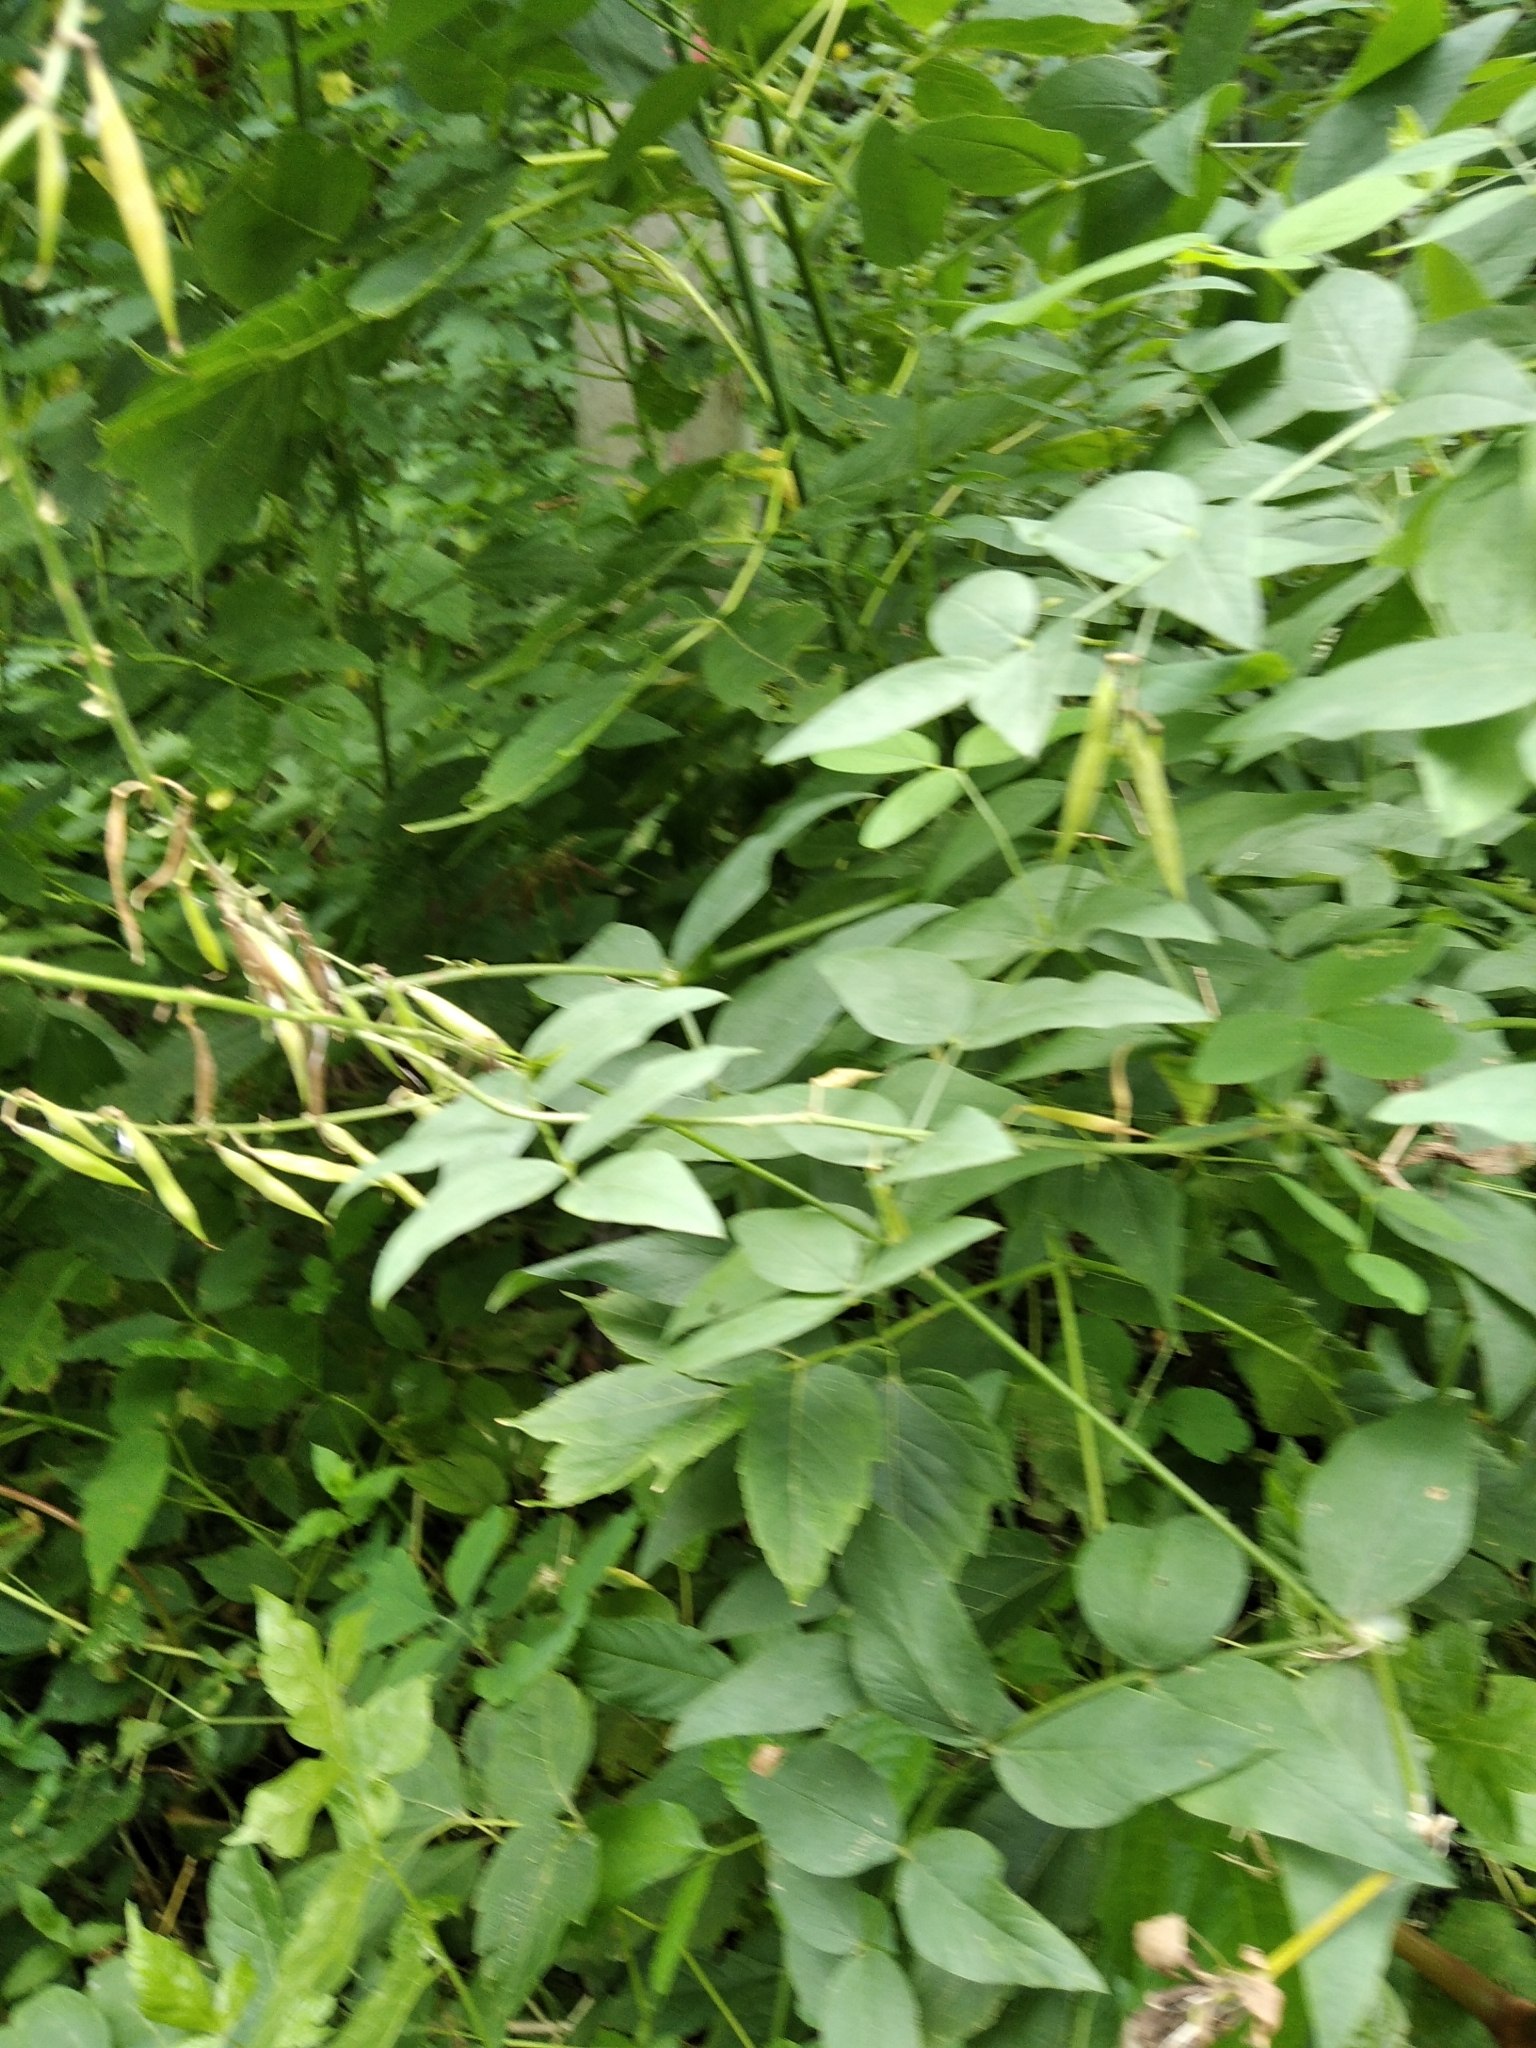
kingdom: Plantae
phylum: Tracheophyta
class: Magnoliopsida
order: Fabales
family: Fabaceae
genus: Galega
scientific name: Galega orientalis
